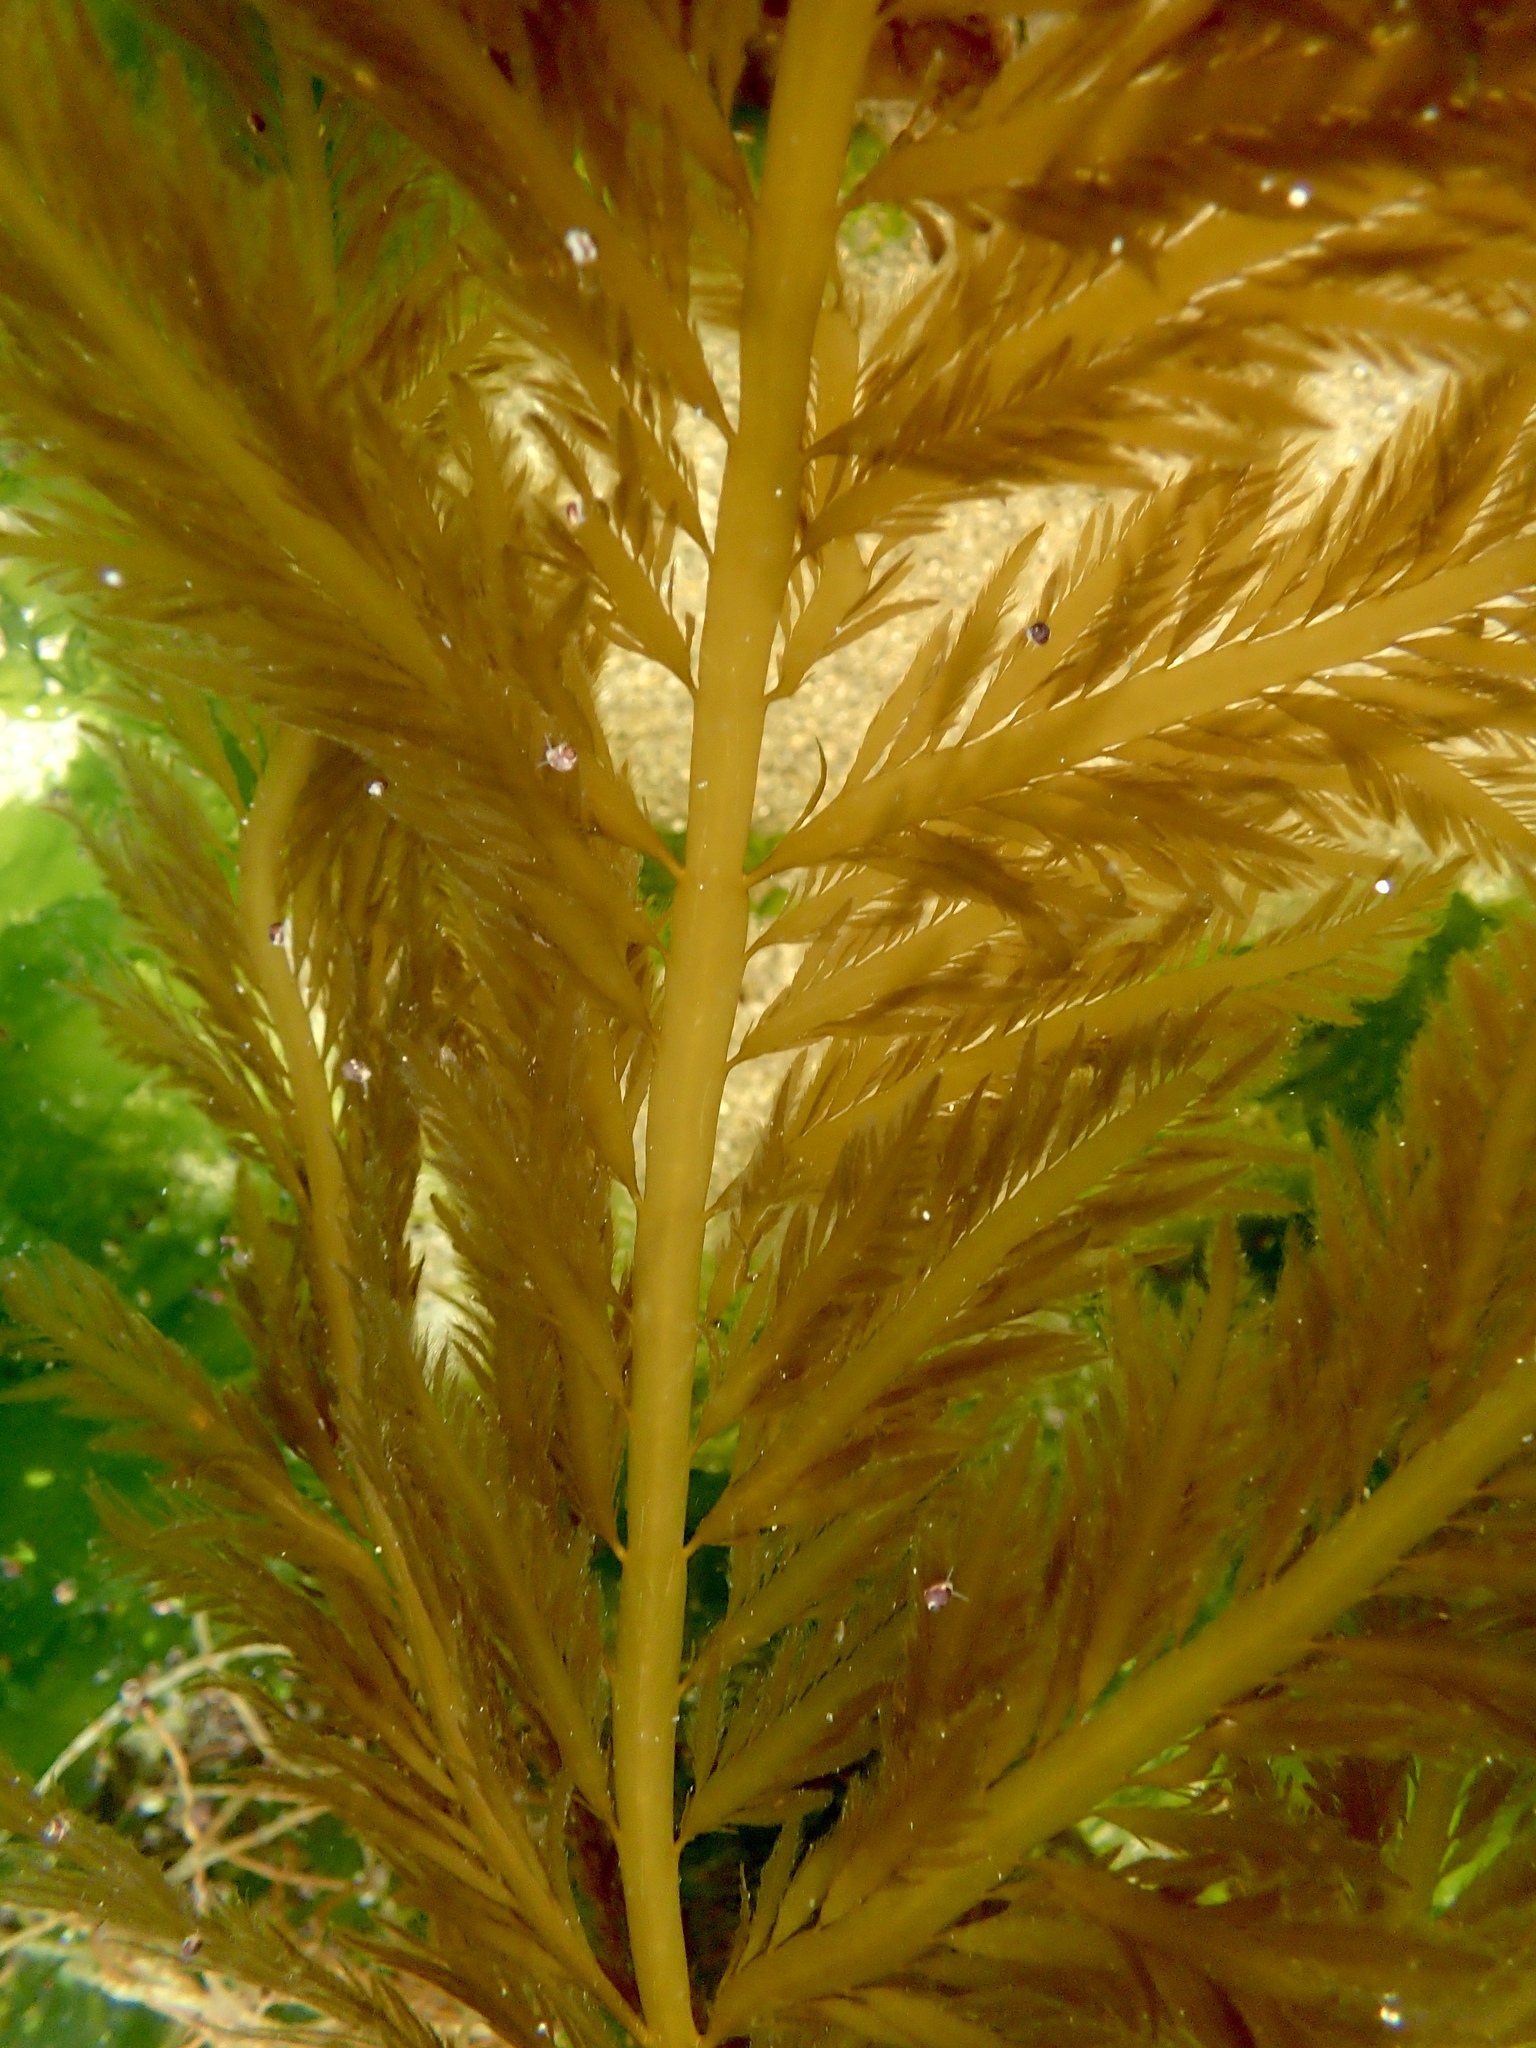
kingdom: Chromista
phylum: Ochrophyta
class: Phaeophyceae
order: Desmarestiales
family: Desmarestiaceae
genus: Desmarestia
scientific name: Desmarestia ligulata
